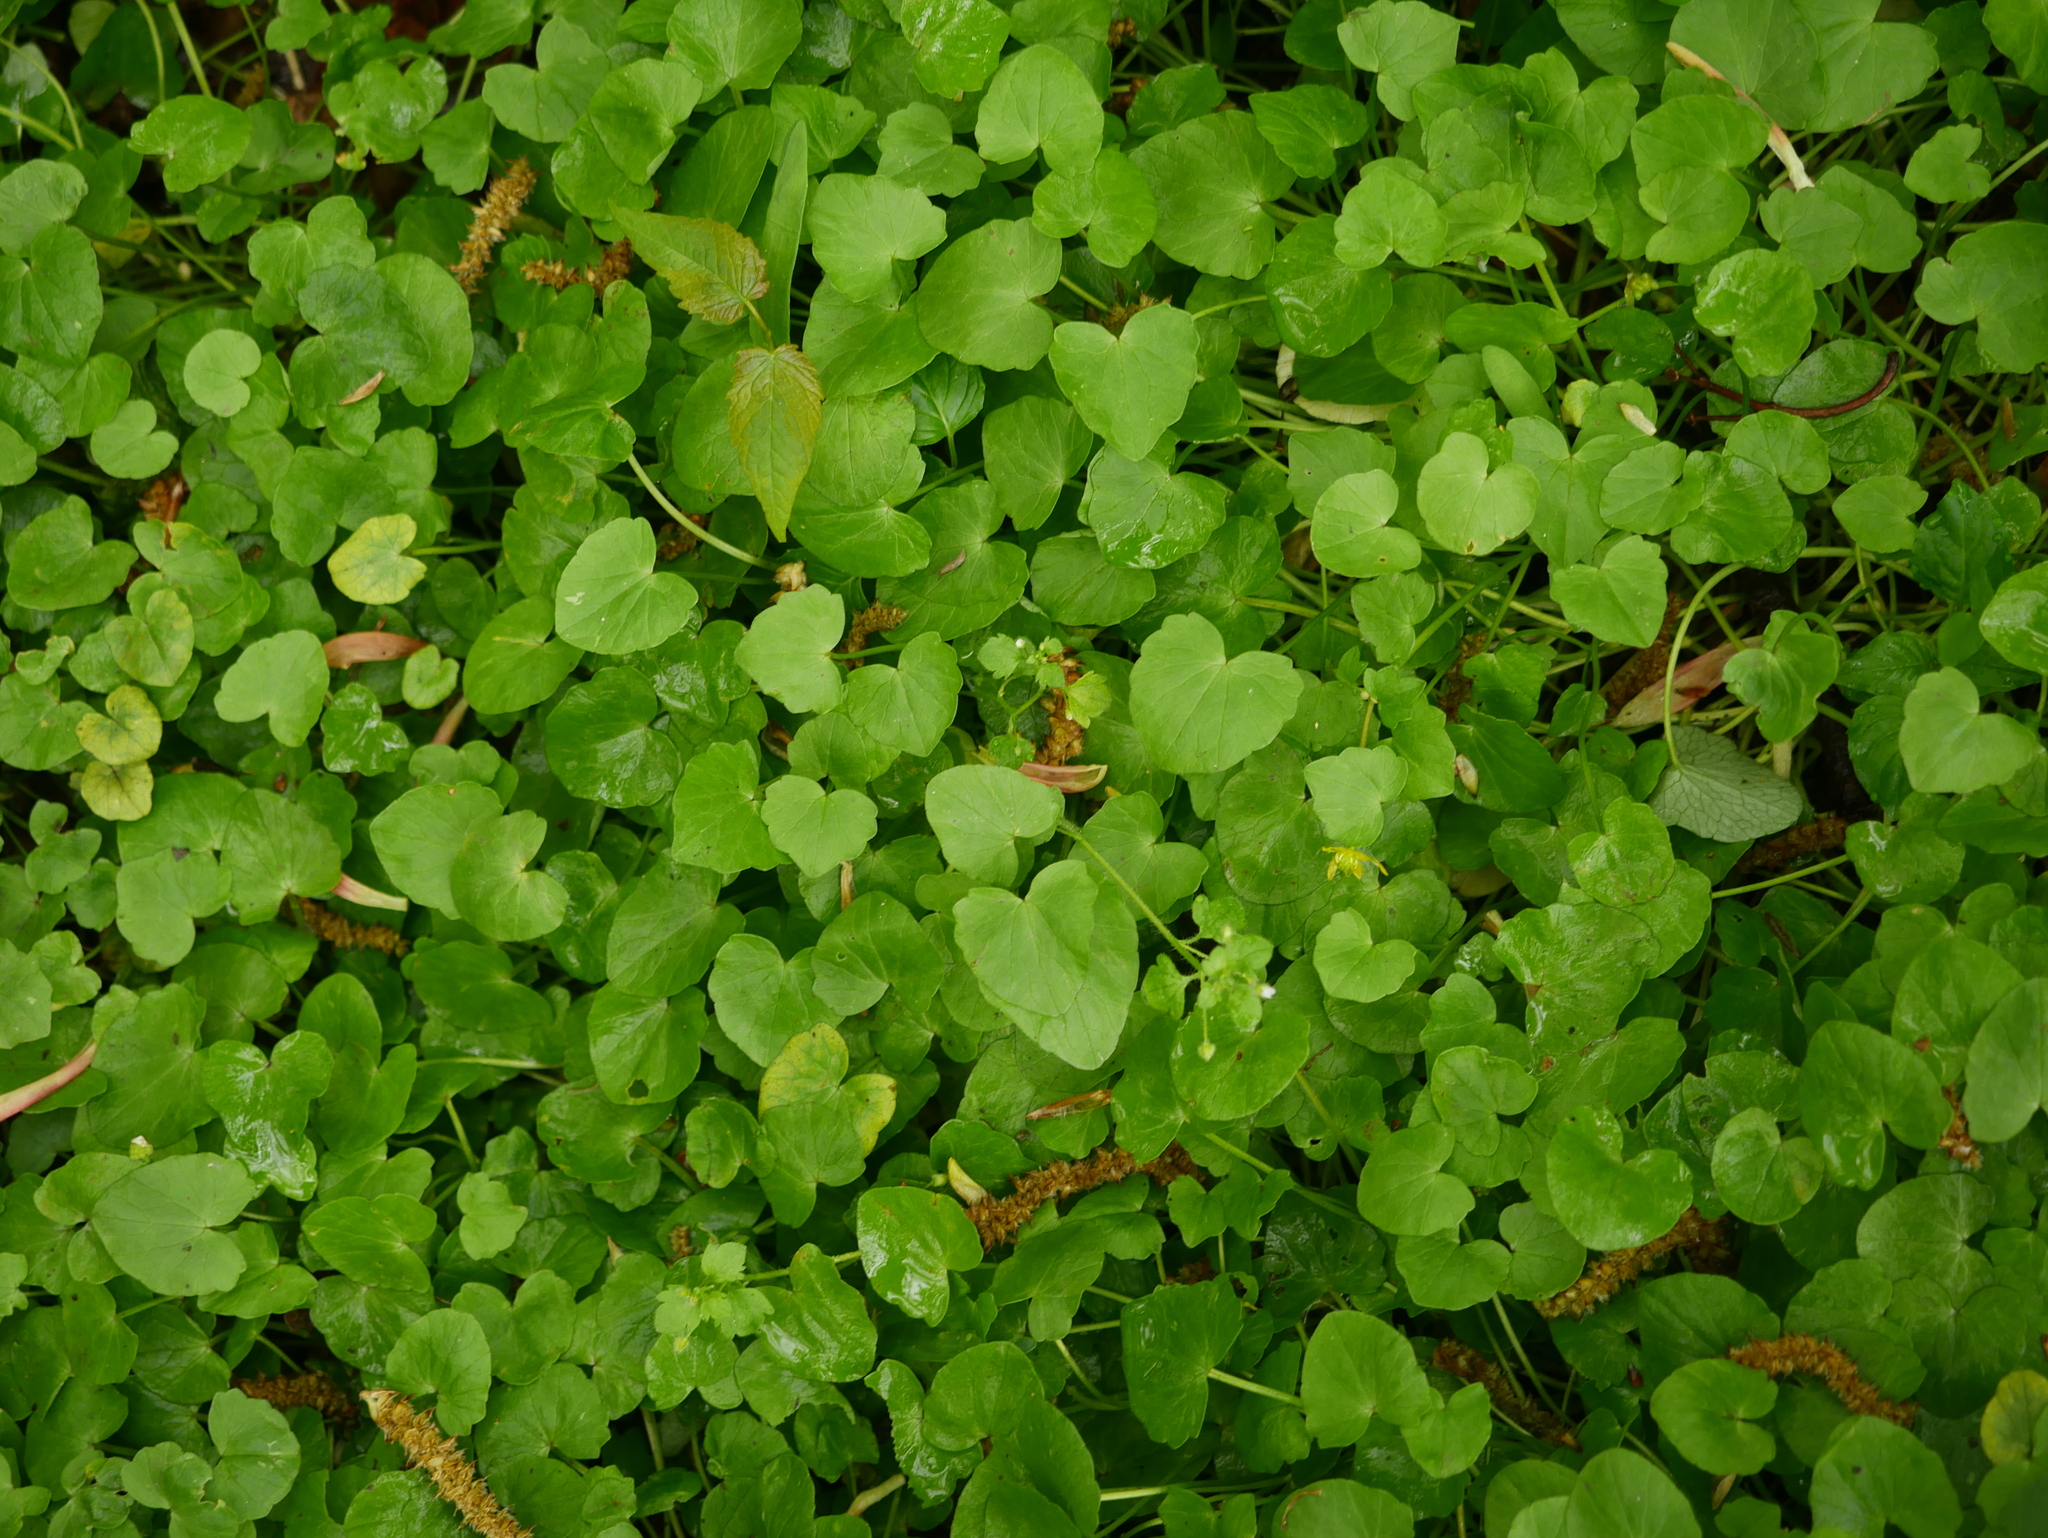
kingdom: Plantae
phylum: Tracheophyta
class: Magnoliopsida
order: Ranunculales
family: Ranunculaceae
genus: Ficaria
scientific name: Ficaria verna
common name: Lesser celandine
